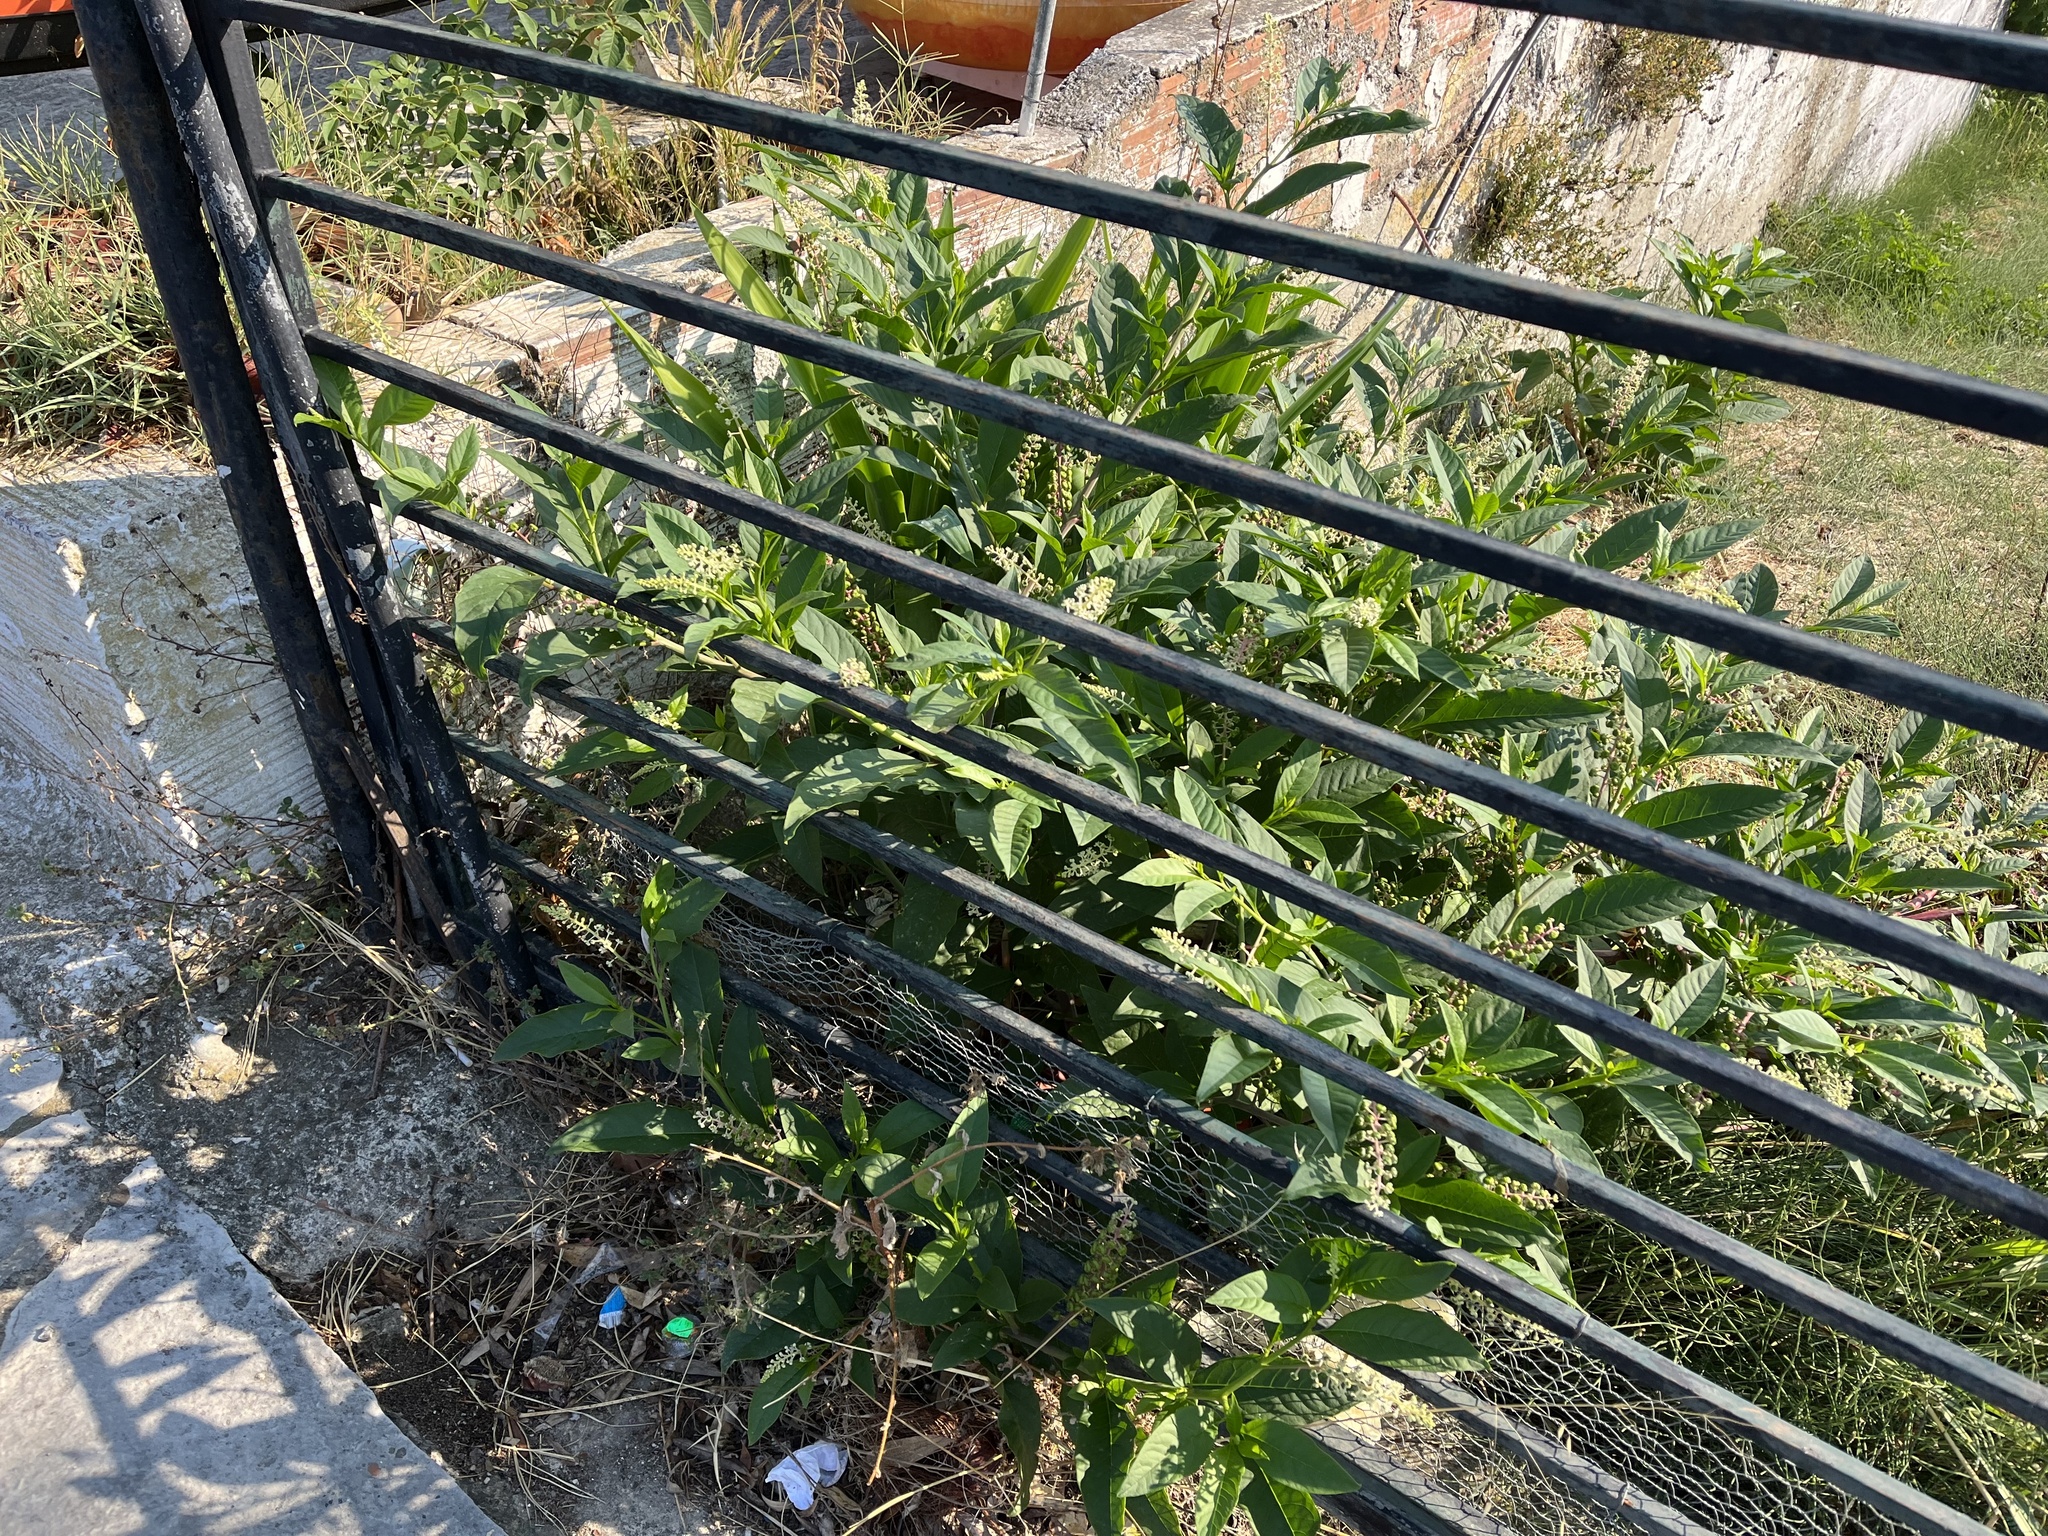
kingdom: Plantae
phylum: Tracheophyta
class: Magnoliopsida
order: Caryophyllales
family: Phytolaccaceae
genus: Phytolacca
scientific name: Phytolacca americana
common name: American pokeweed
